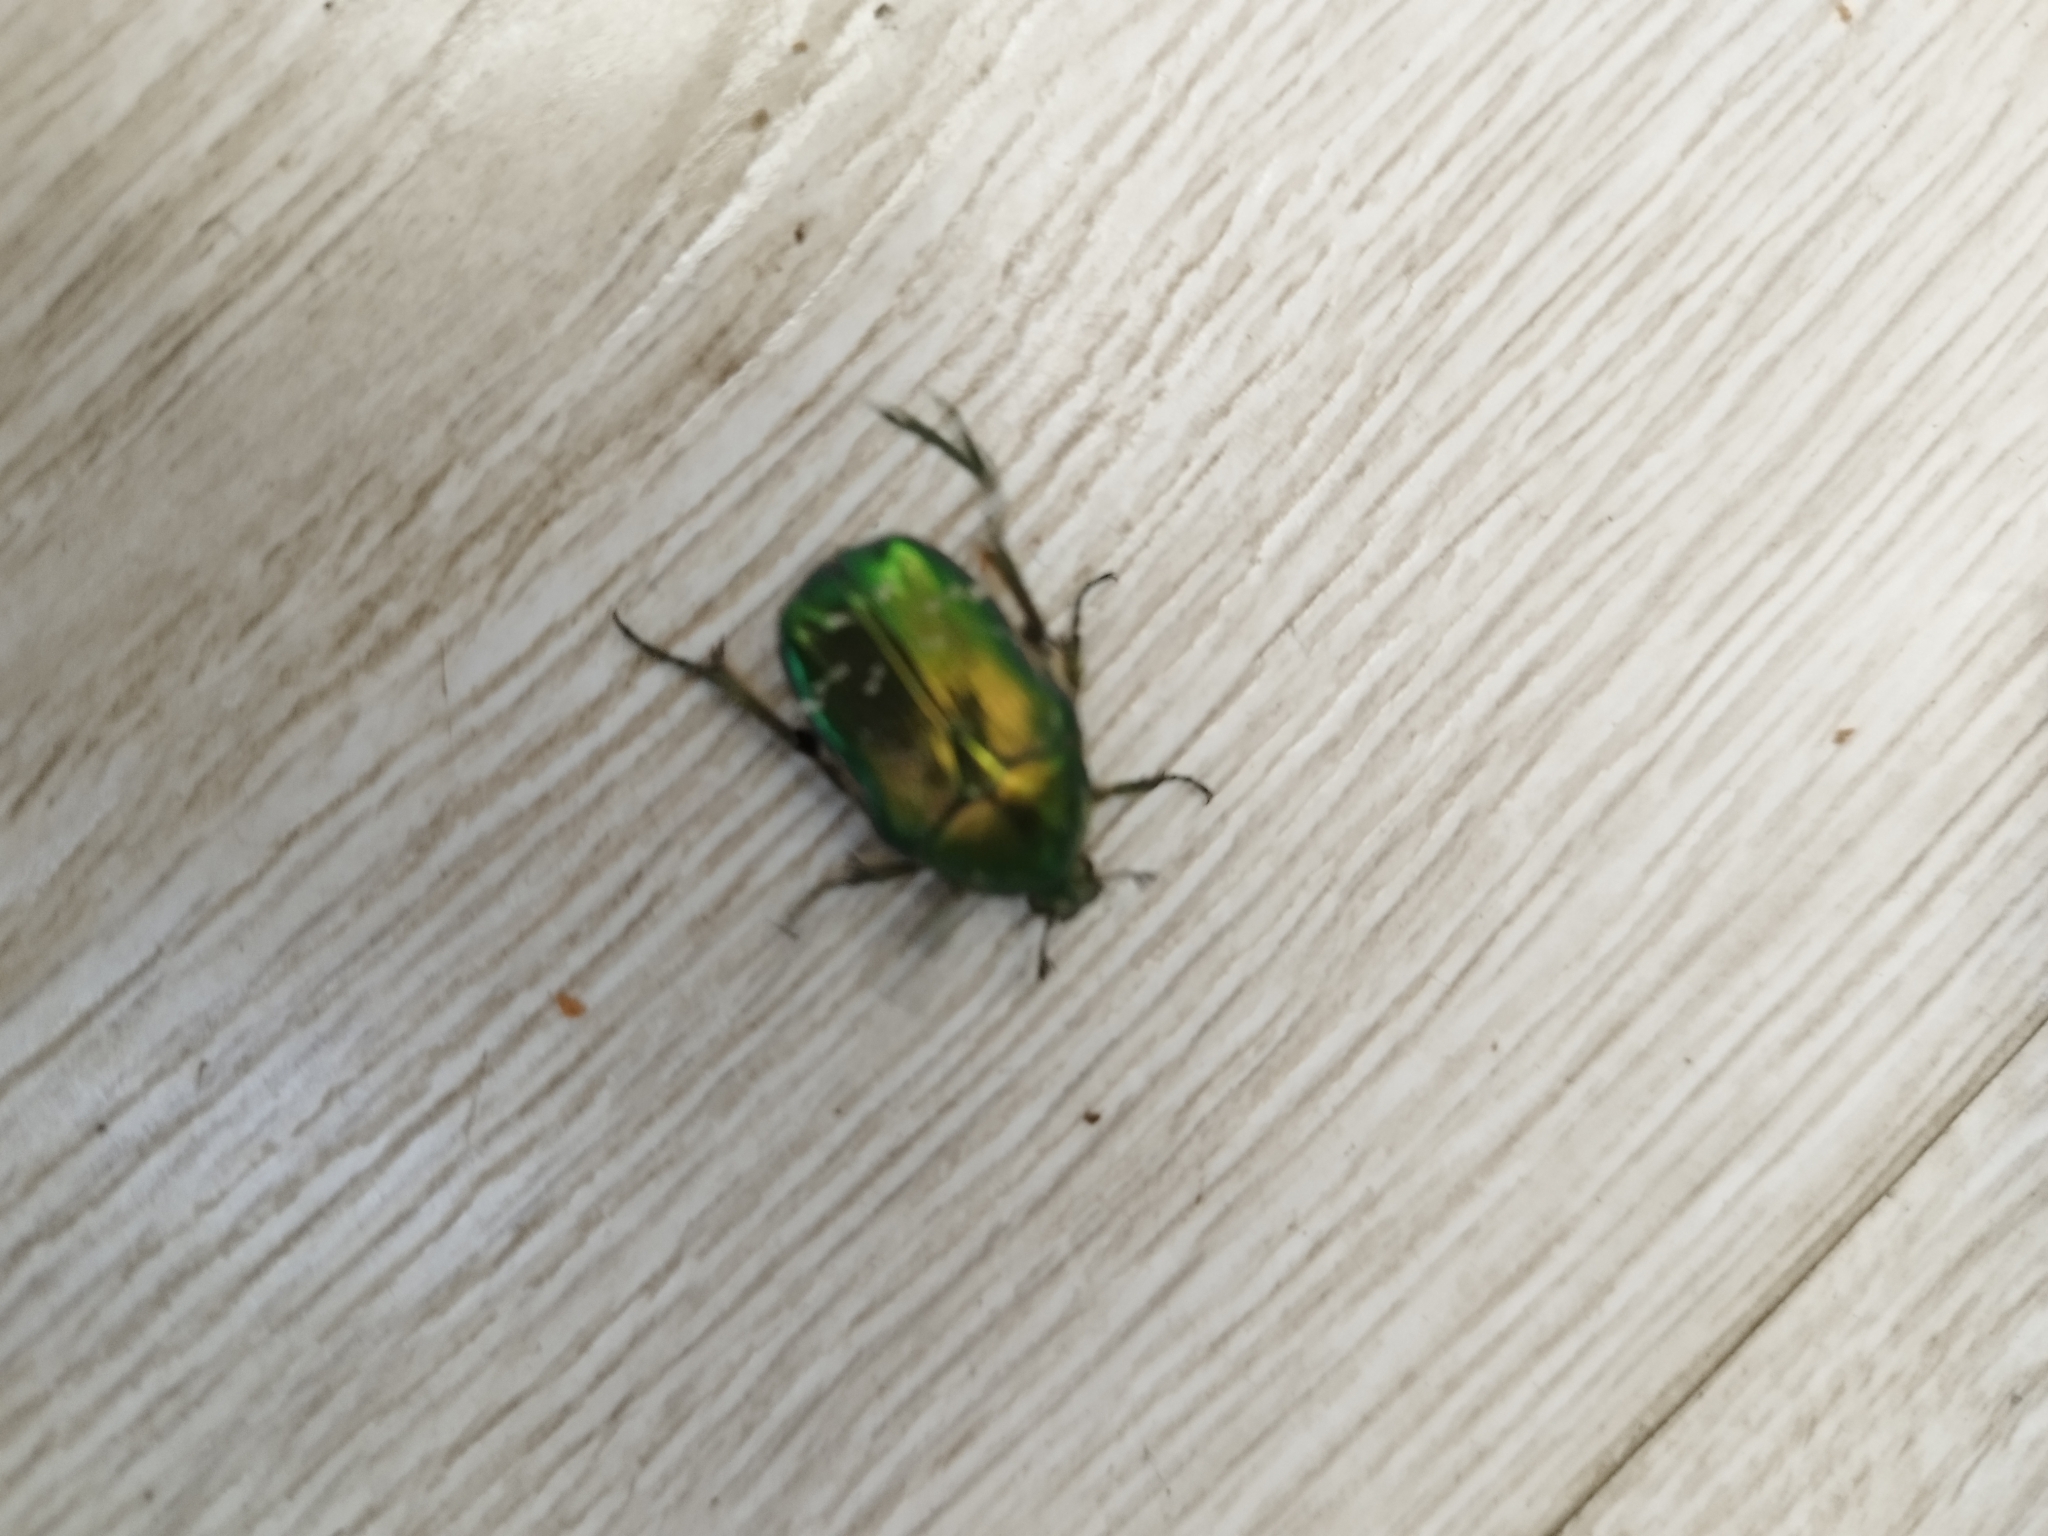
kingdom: Animalia
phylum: Arthropoda
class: Insecta
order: Coleoptera
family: Scarabaeidae
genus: Cetonia
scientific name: Cetonia aurata
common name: Rose chafer
